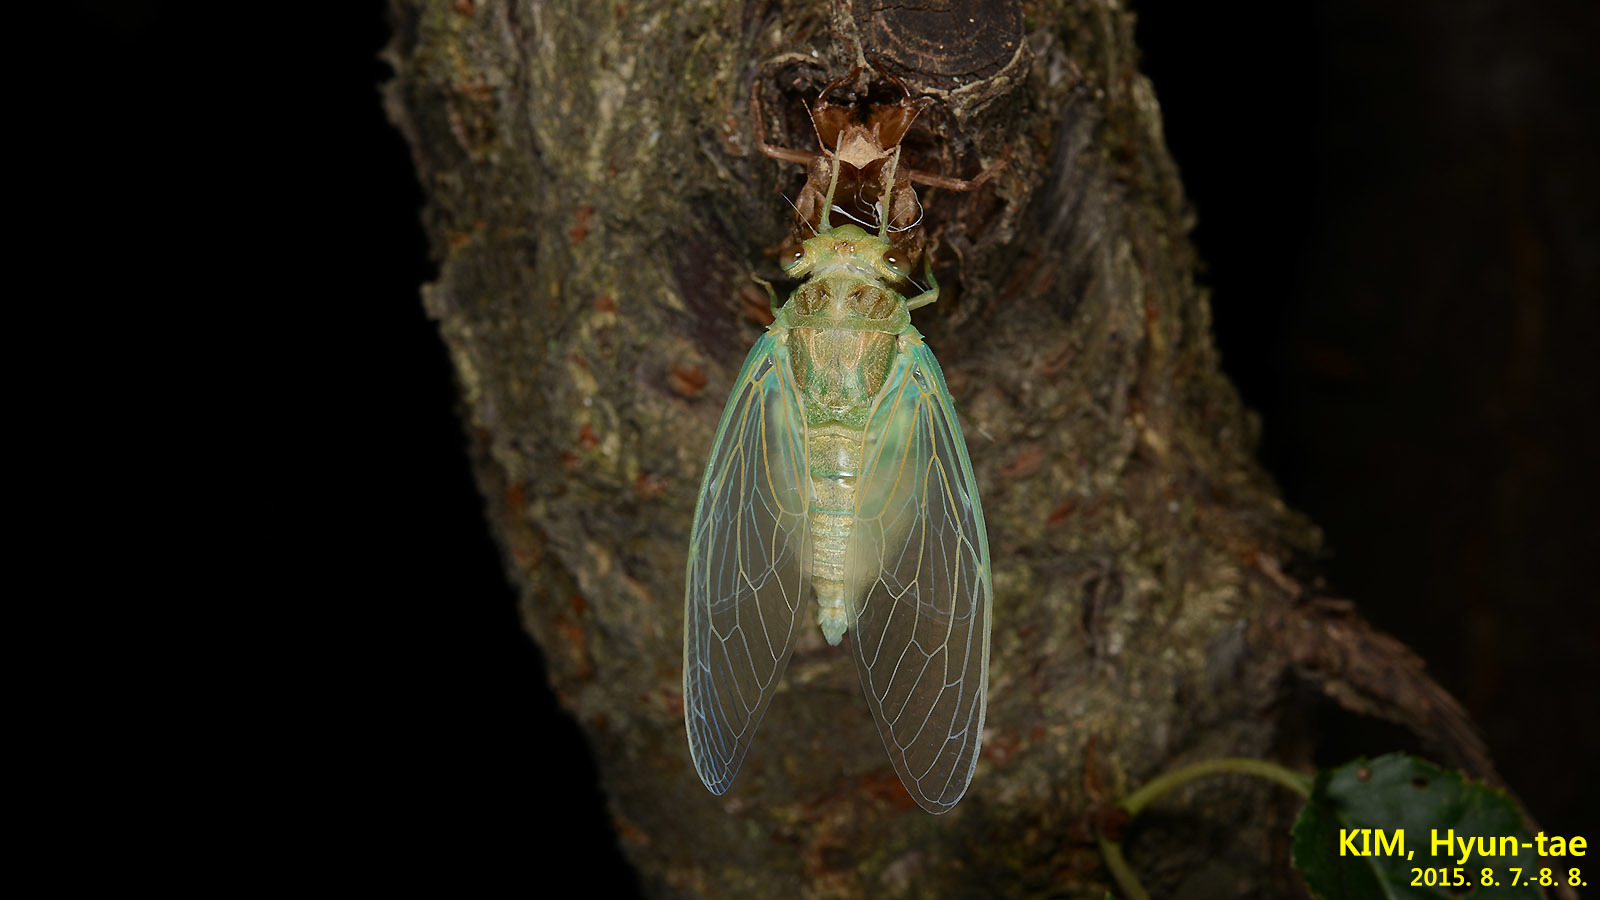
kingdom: Animalia
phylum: Arthropoda
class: Insecta
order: Hemiptera
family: Cicadidae
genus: Meimuna
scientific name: Meimuna mongolica
